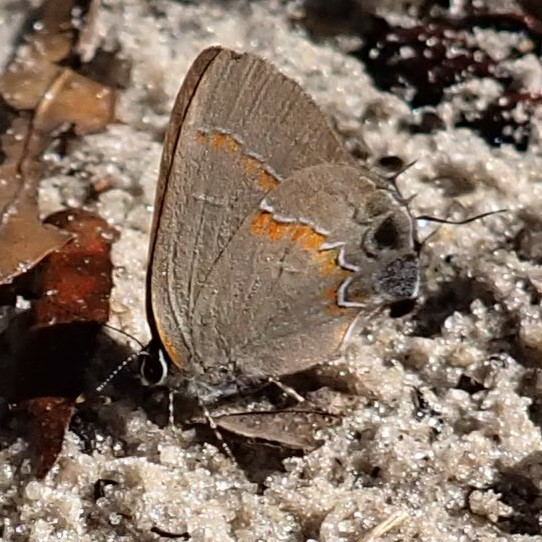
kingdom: Animalia
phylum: Arthropoda
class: Insecta
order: Lepidoptera
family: Lycaenidae
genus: Calycopis
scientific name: Calycopis cecrops
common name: Red-banded hairstreak
